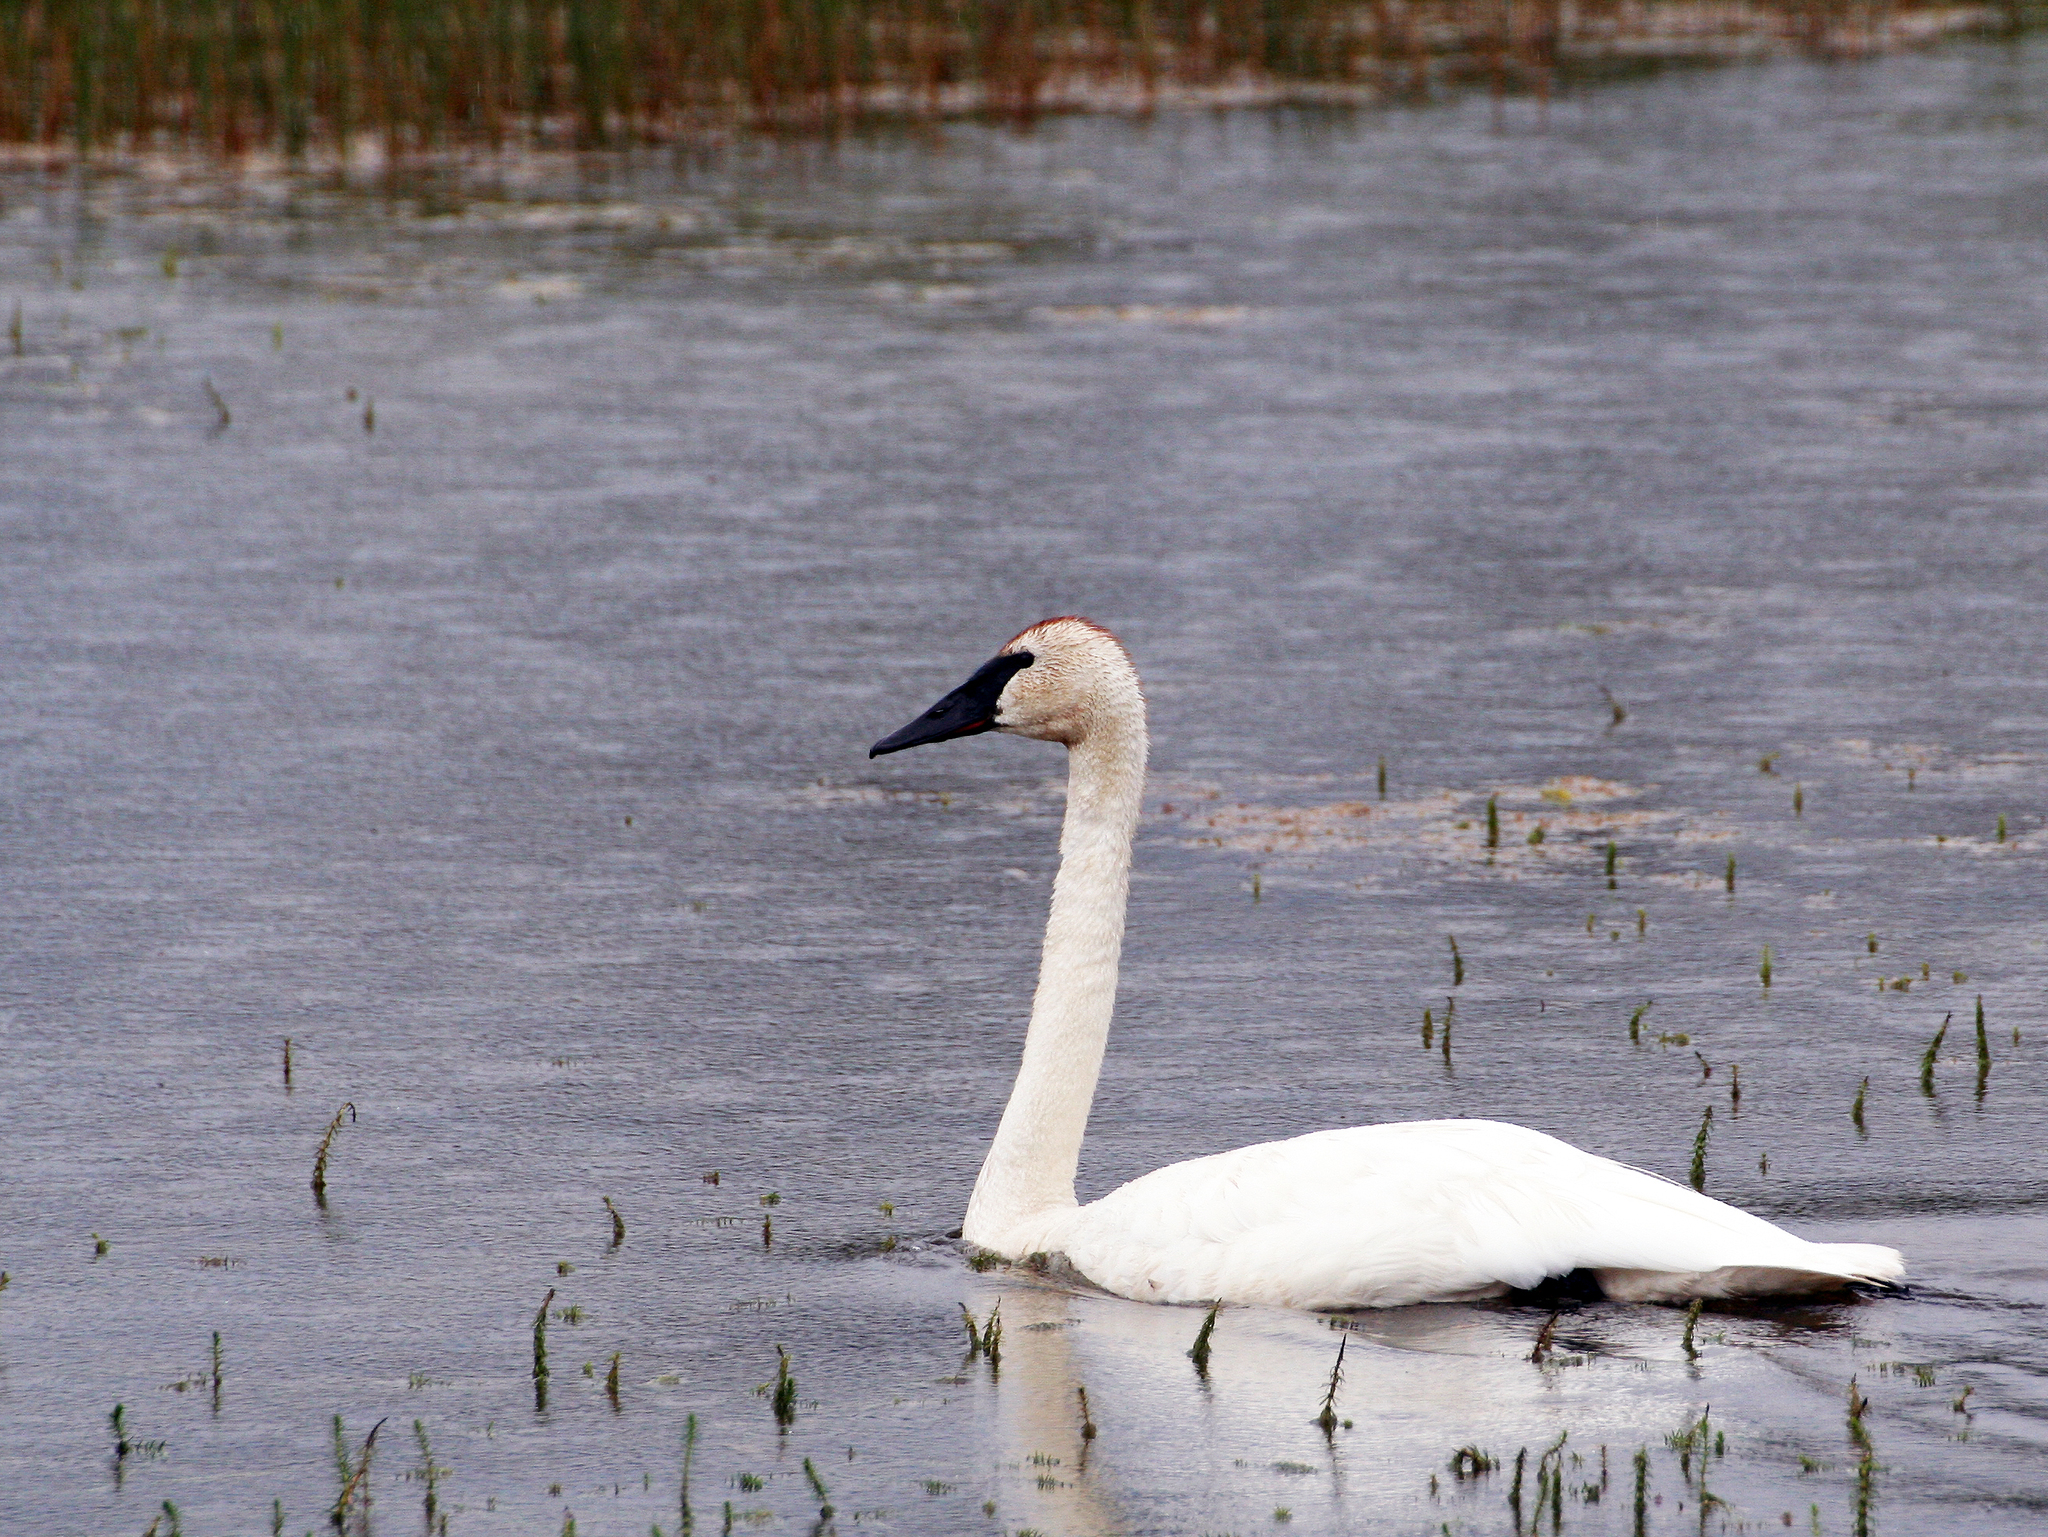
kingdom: Animalia
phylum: Chordata
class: Aves
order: Anseriformes
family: Anatidae
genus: Cygnus
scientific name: Cygnus buccinator
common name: Trumpeter swan
